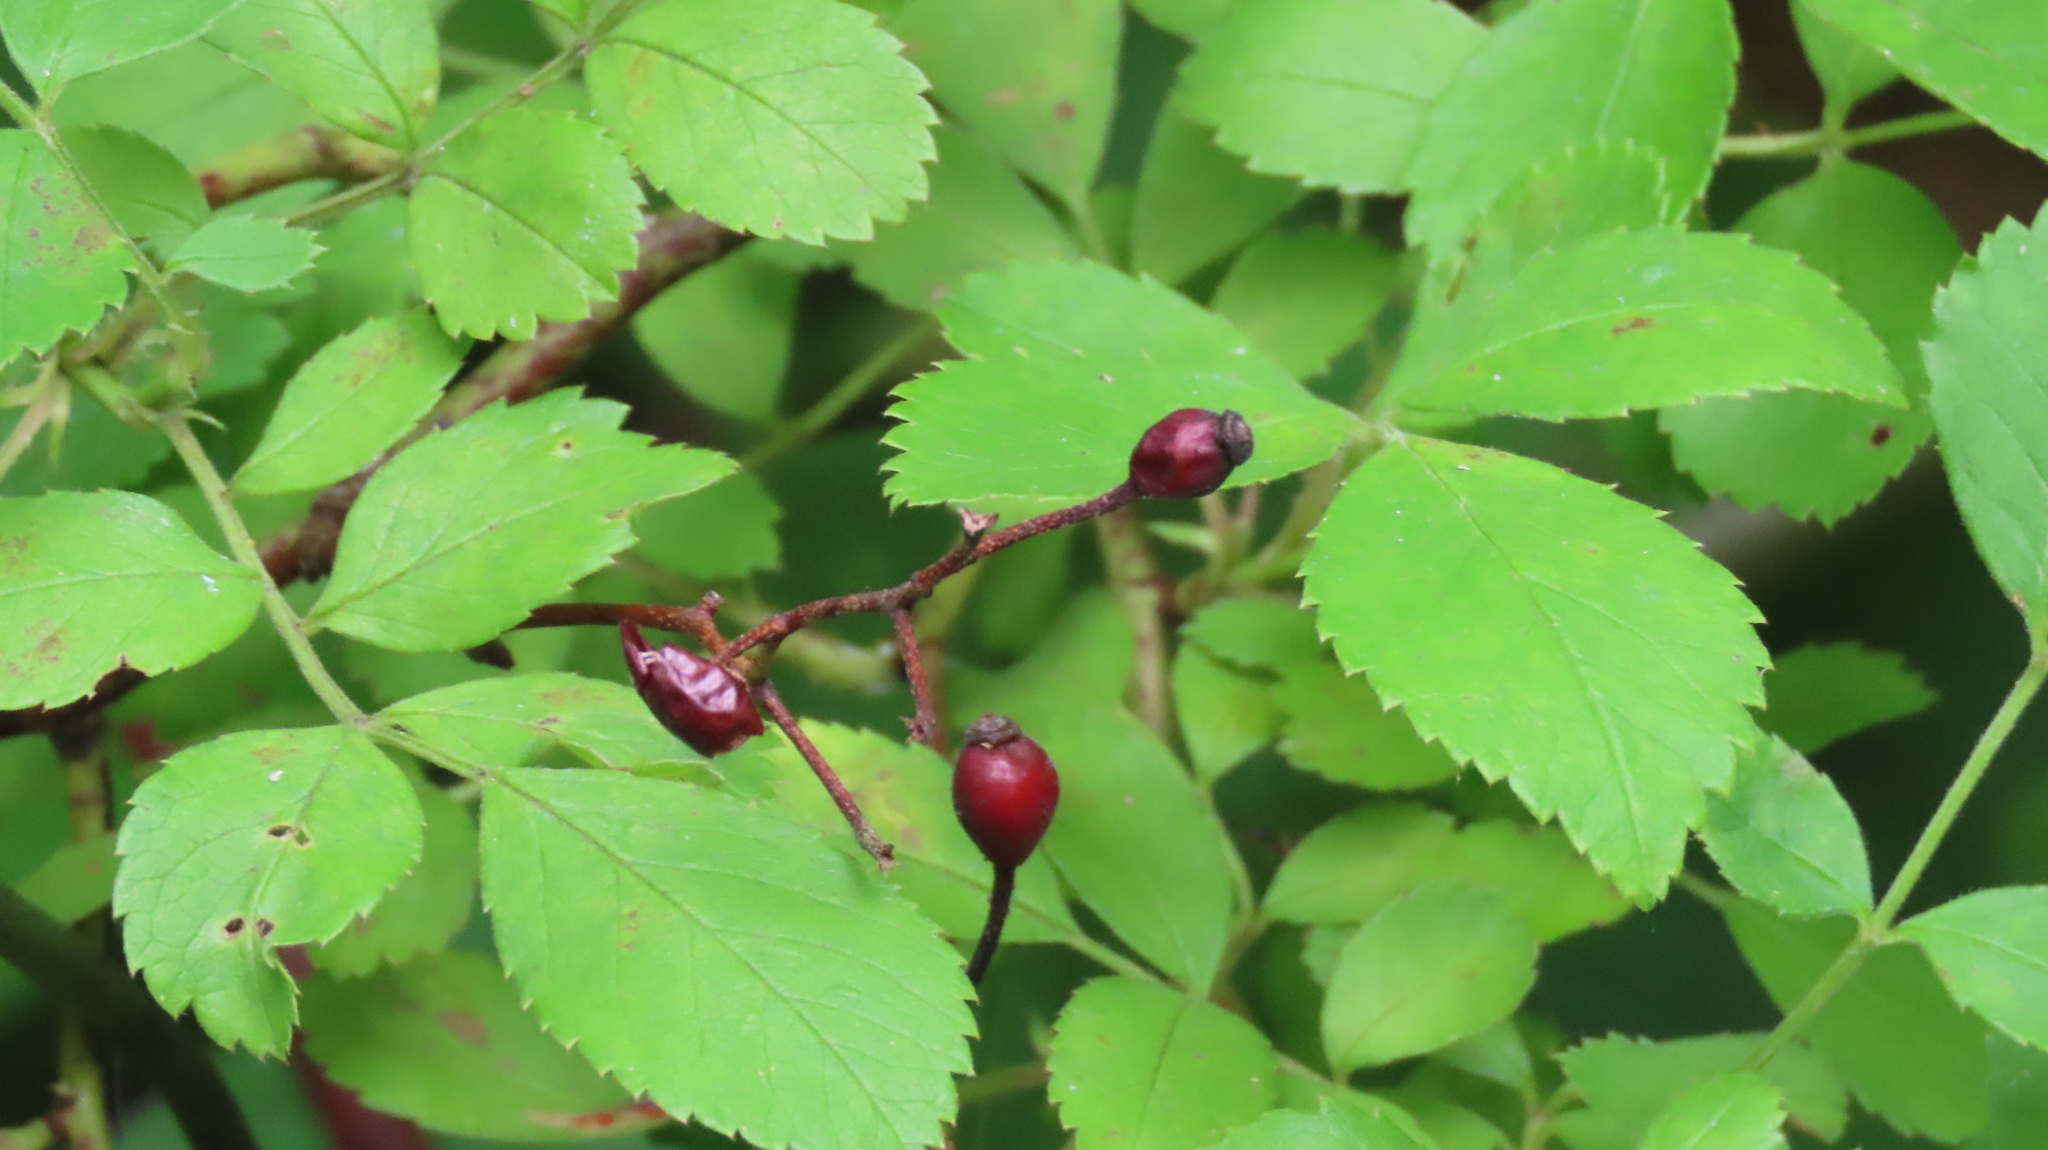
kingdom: Plantae
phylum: Tracheophyta
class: Magnoliopsida
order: Rosales
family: Rosaceae
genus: Rosa
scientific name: Rosa multiflora
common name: Multiflora rose
